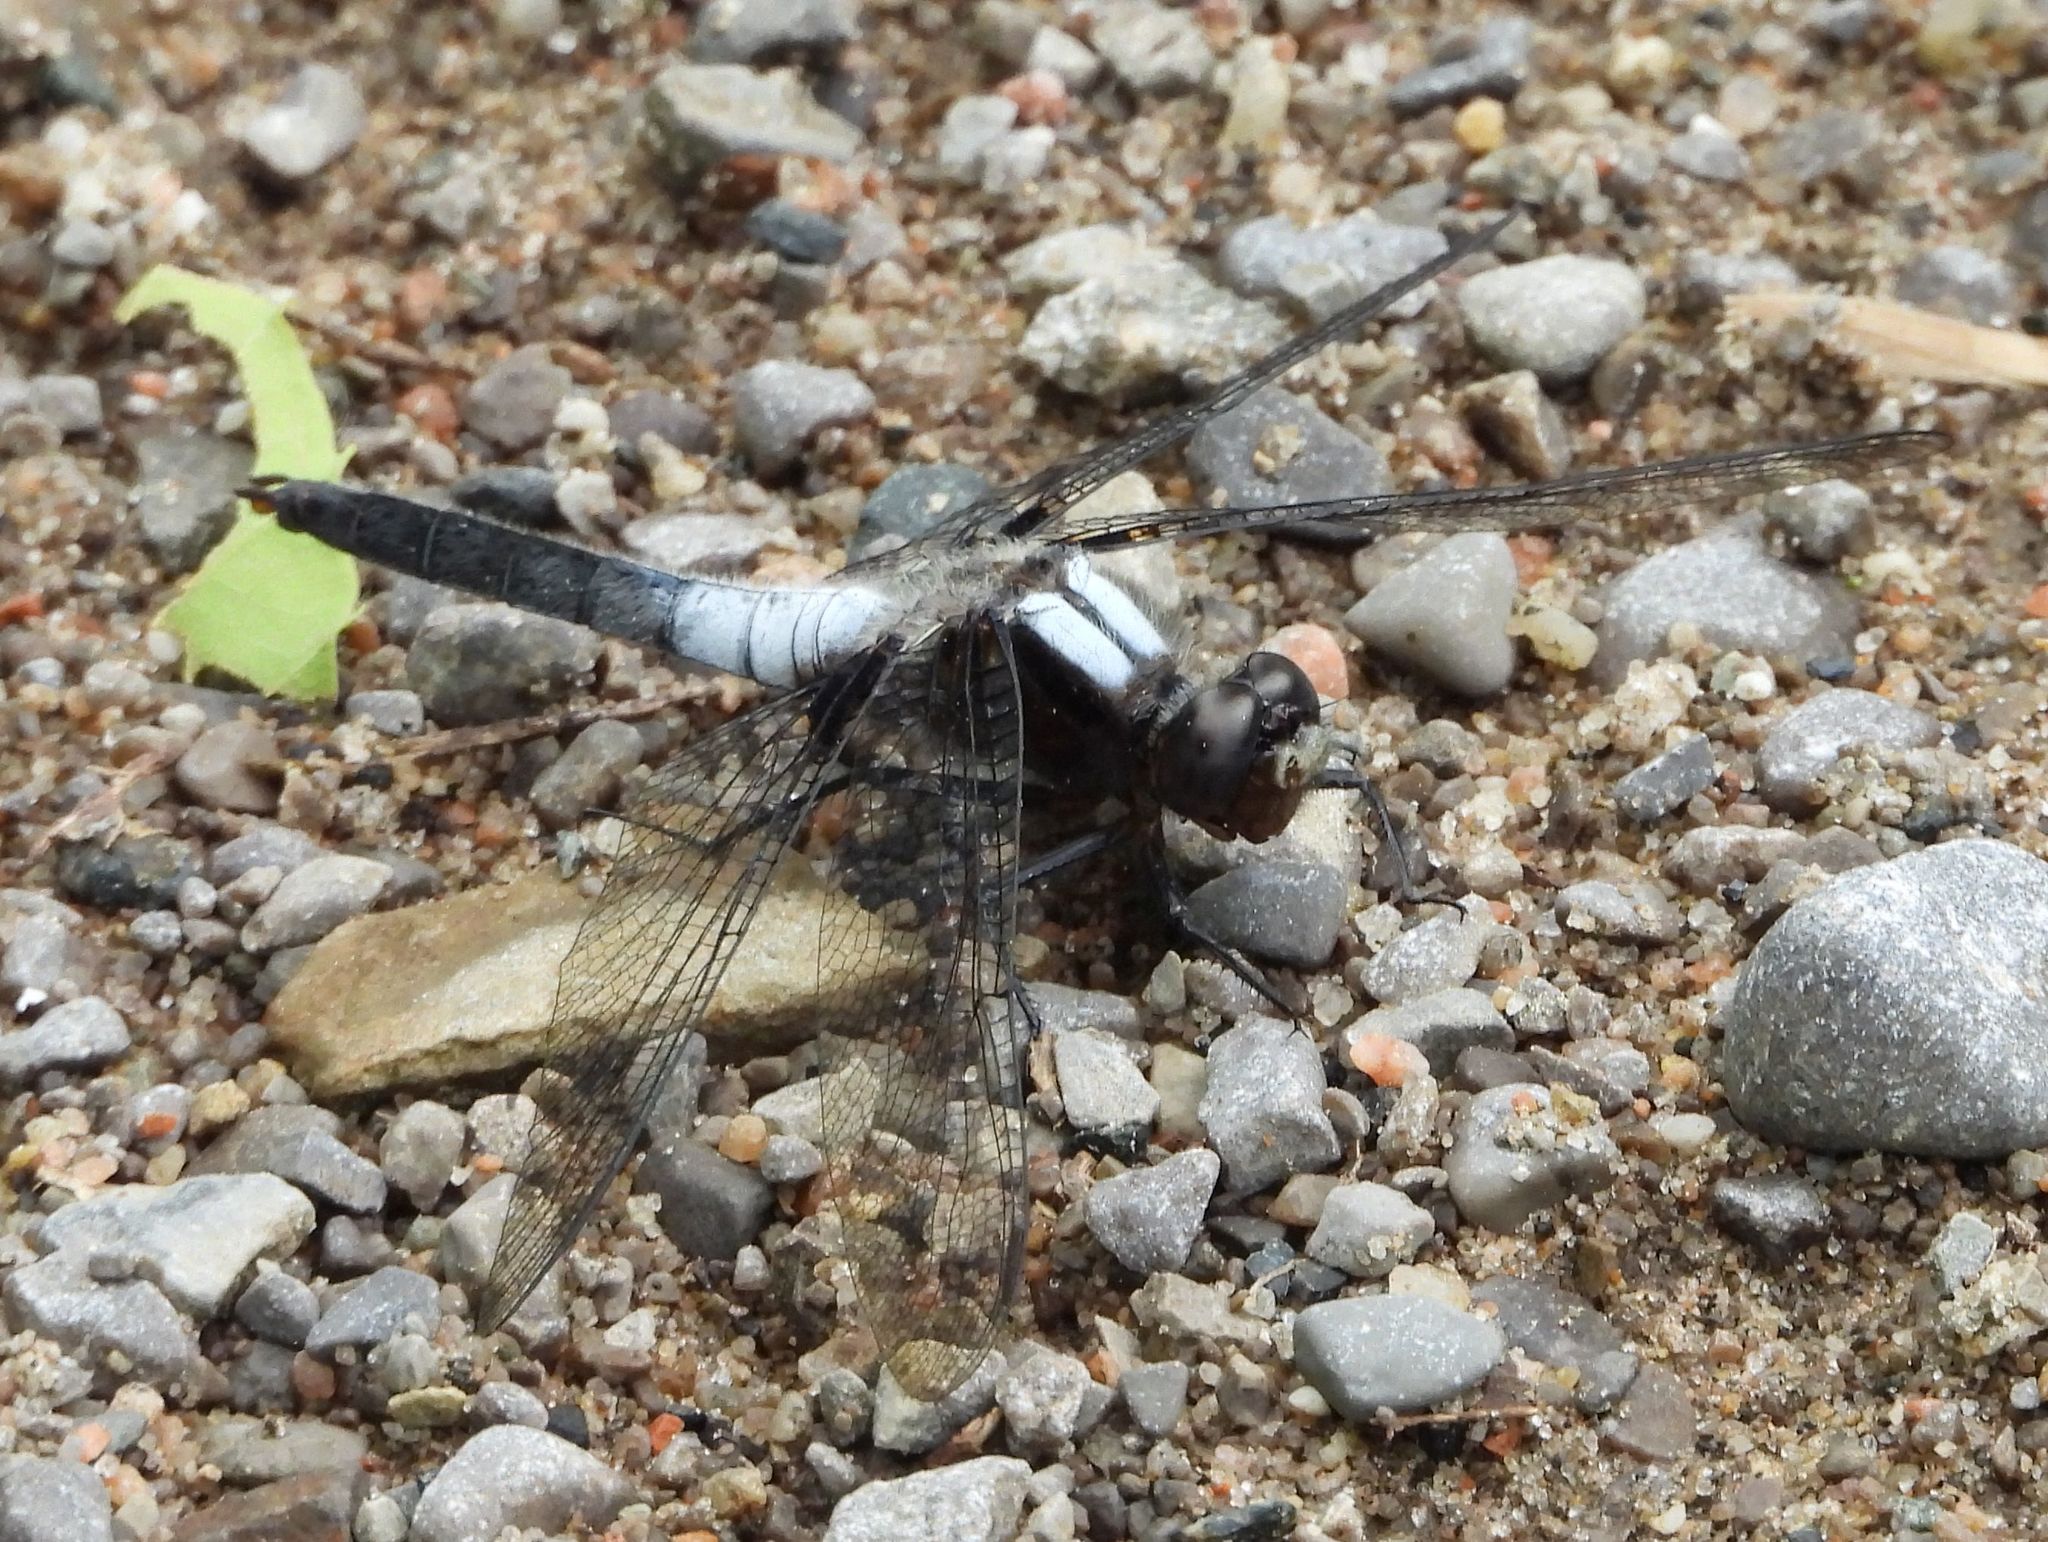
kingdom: Animalia
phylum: Arthropoda
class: Insecta
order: Odonata
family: Libellulidae
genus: Ladona
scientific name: Ladona julia
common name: Chalk-fronted corporal
